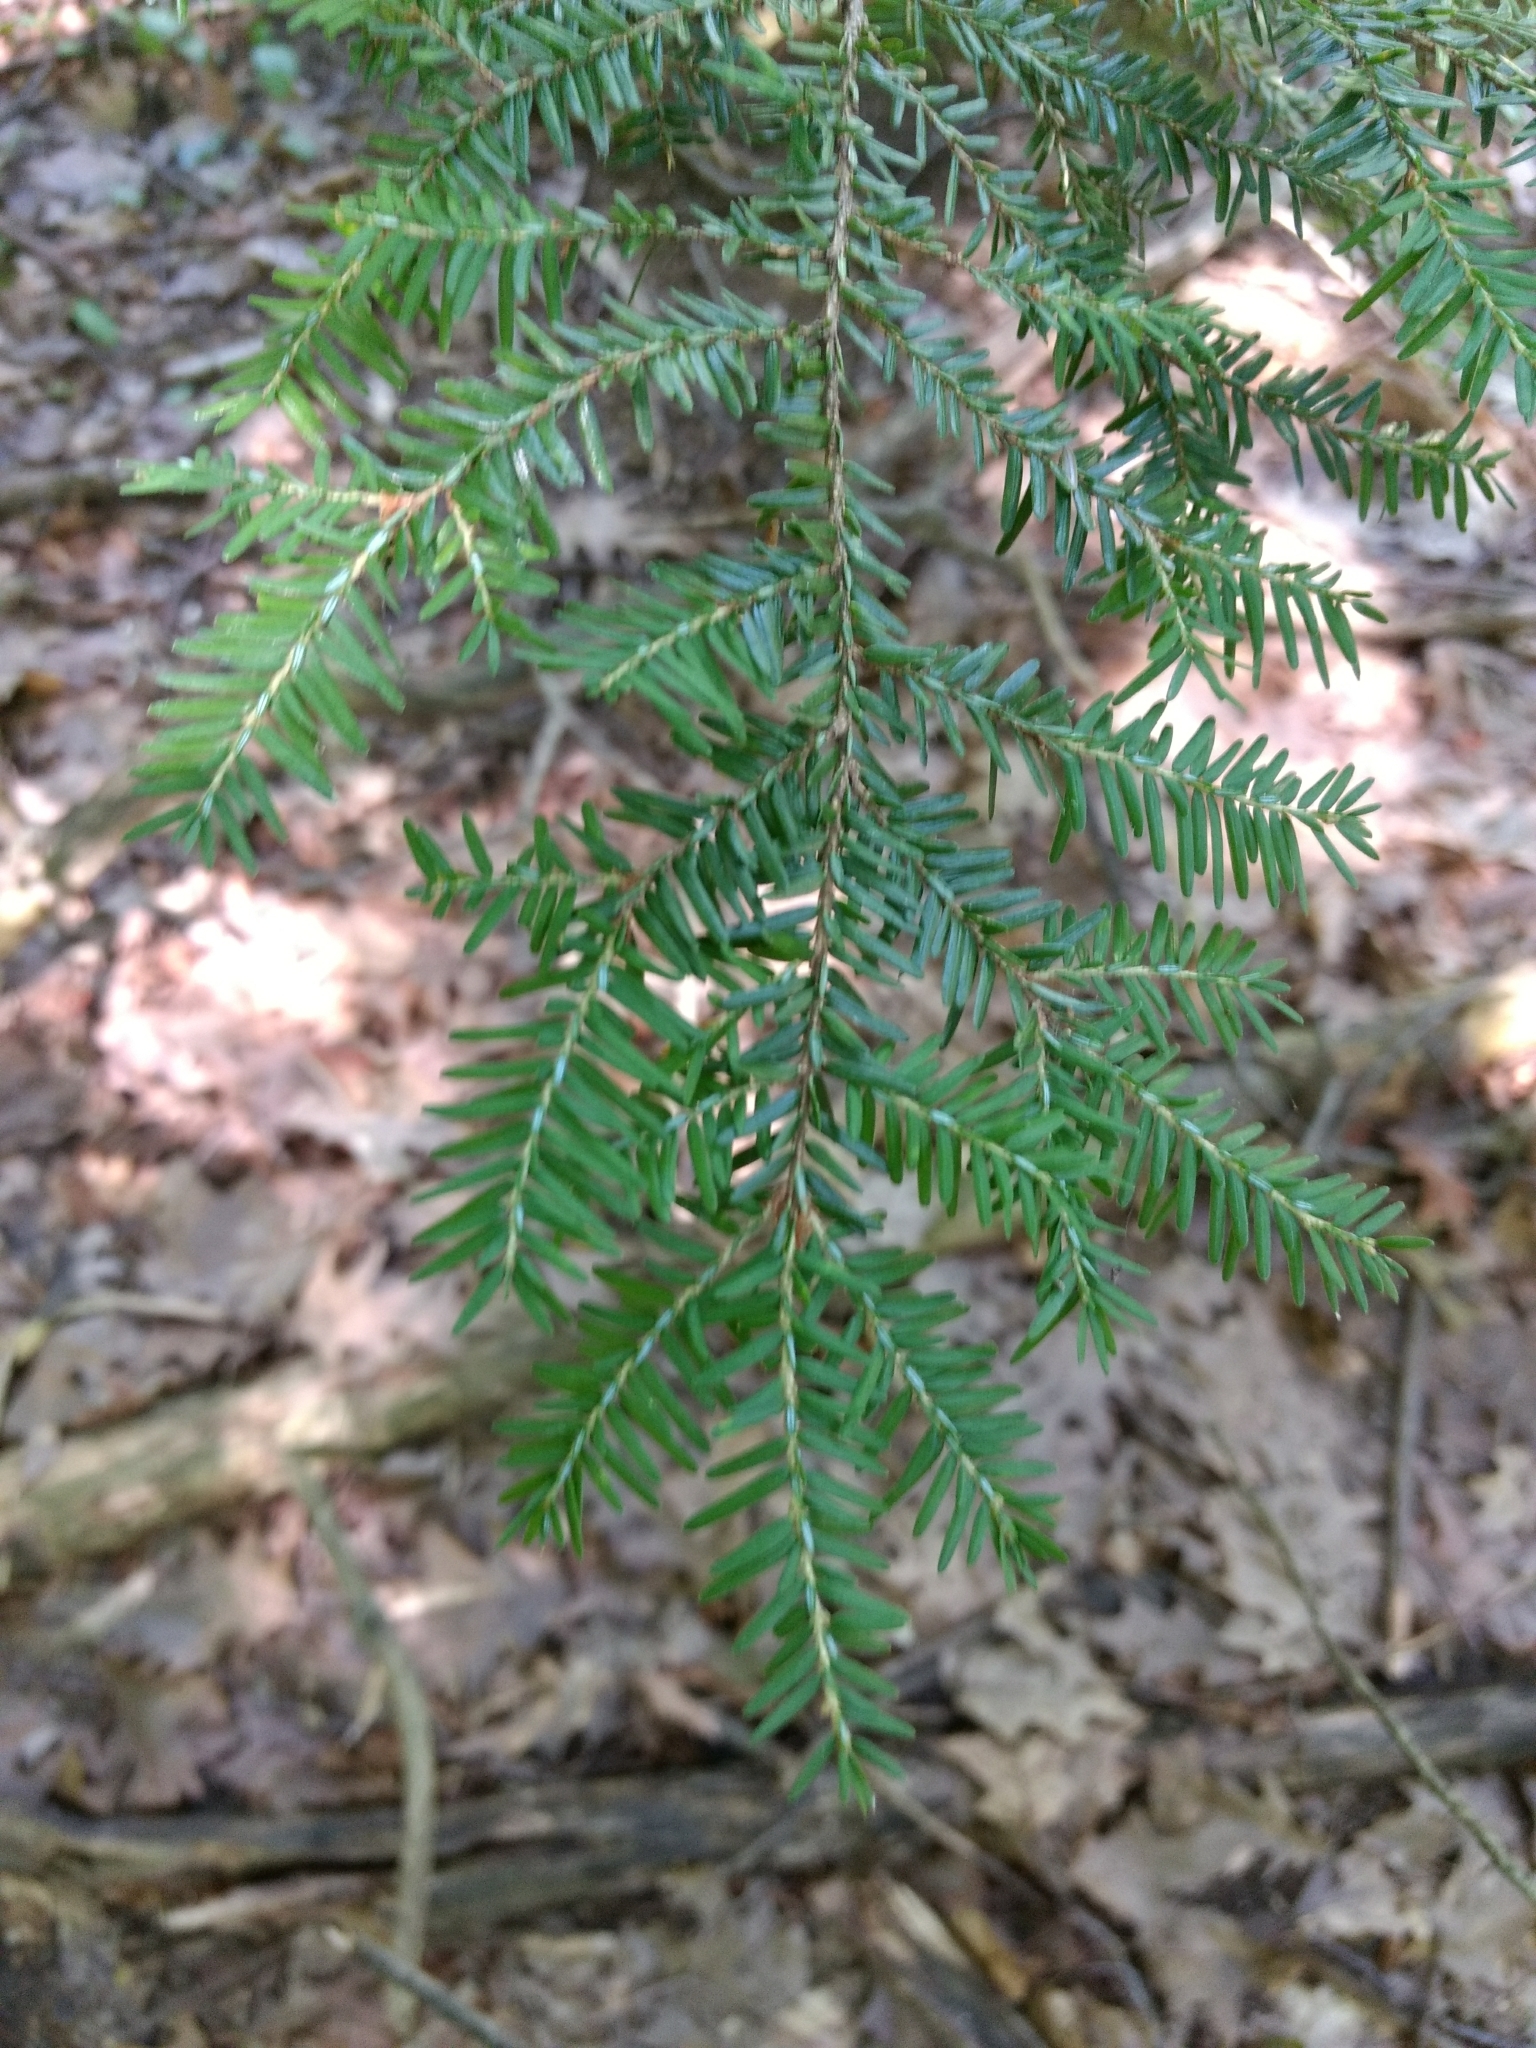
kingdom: Plantae
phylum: Tracheophyta
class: Pinopsida
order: Pinales
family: Pinaceae
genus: Tsuga
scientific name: Tsuga canadensis
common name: Eastern hemlock
